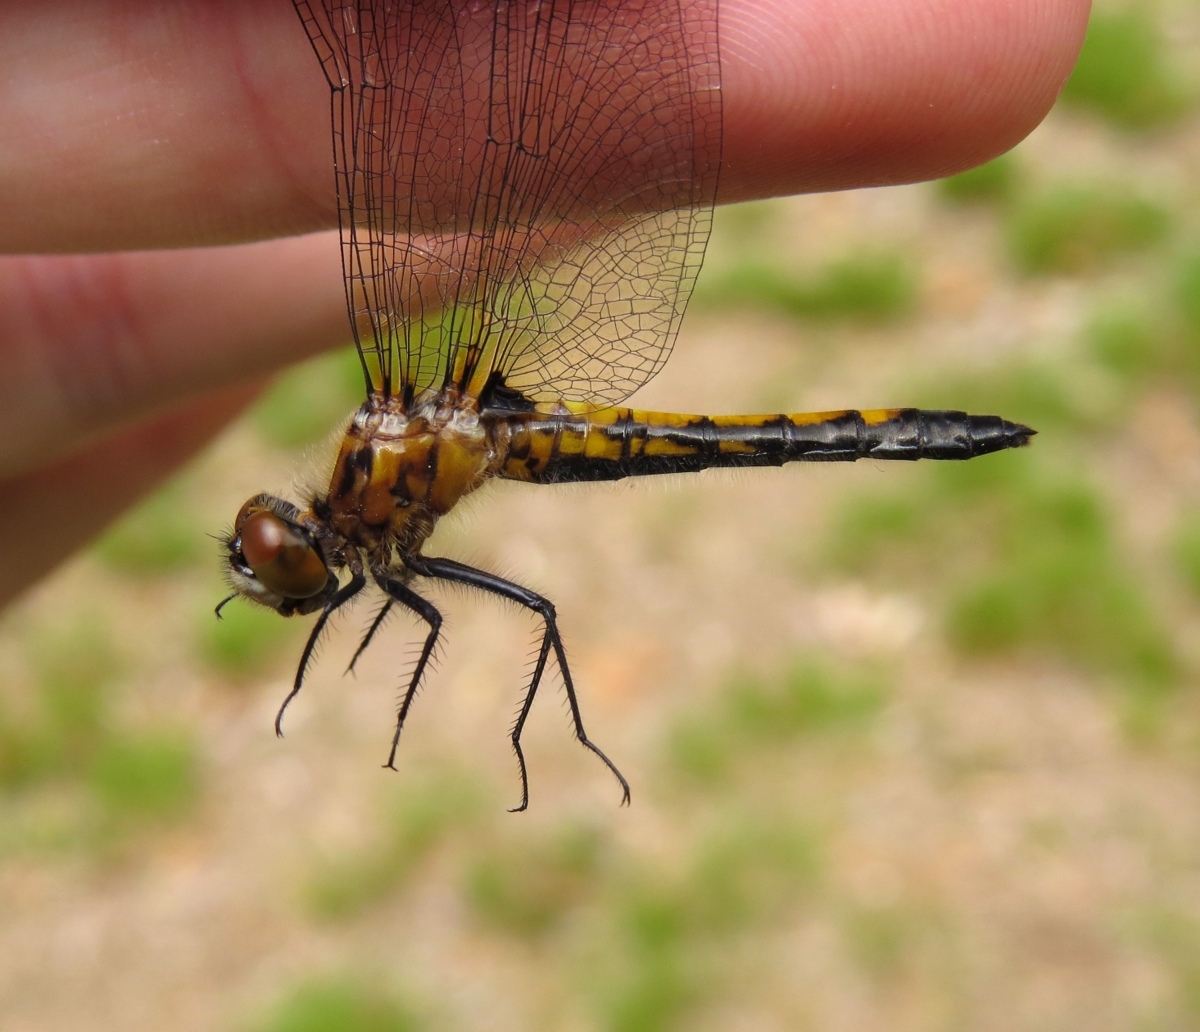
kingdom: Animalia
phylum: Arthropoda
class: Insecta
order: Odonata
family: Libellulidae
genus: Leucorrhinia
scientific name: Leucorrhinia intacta
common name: Dot-tailed whiteface
